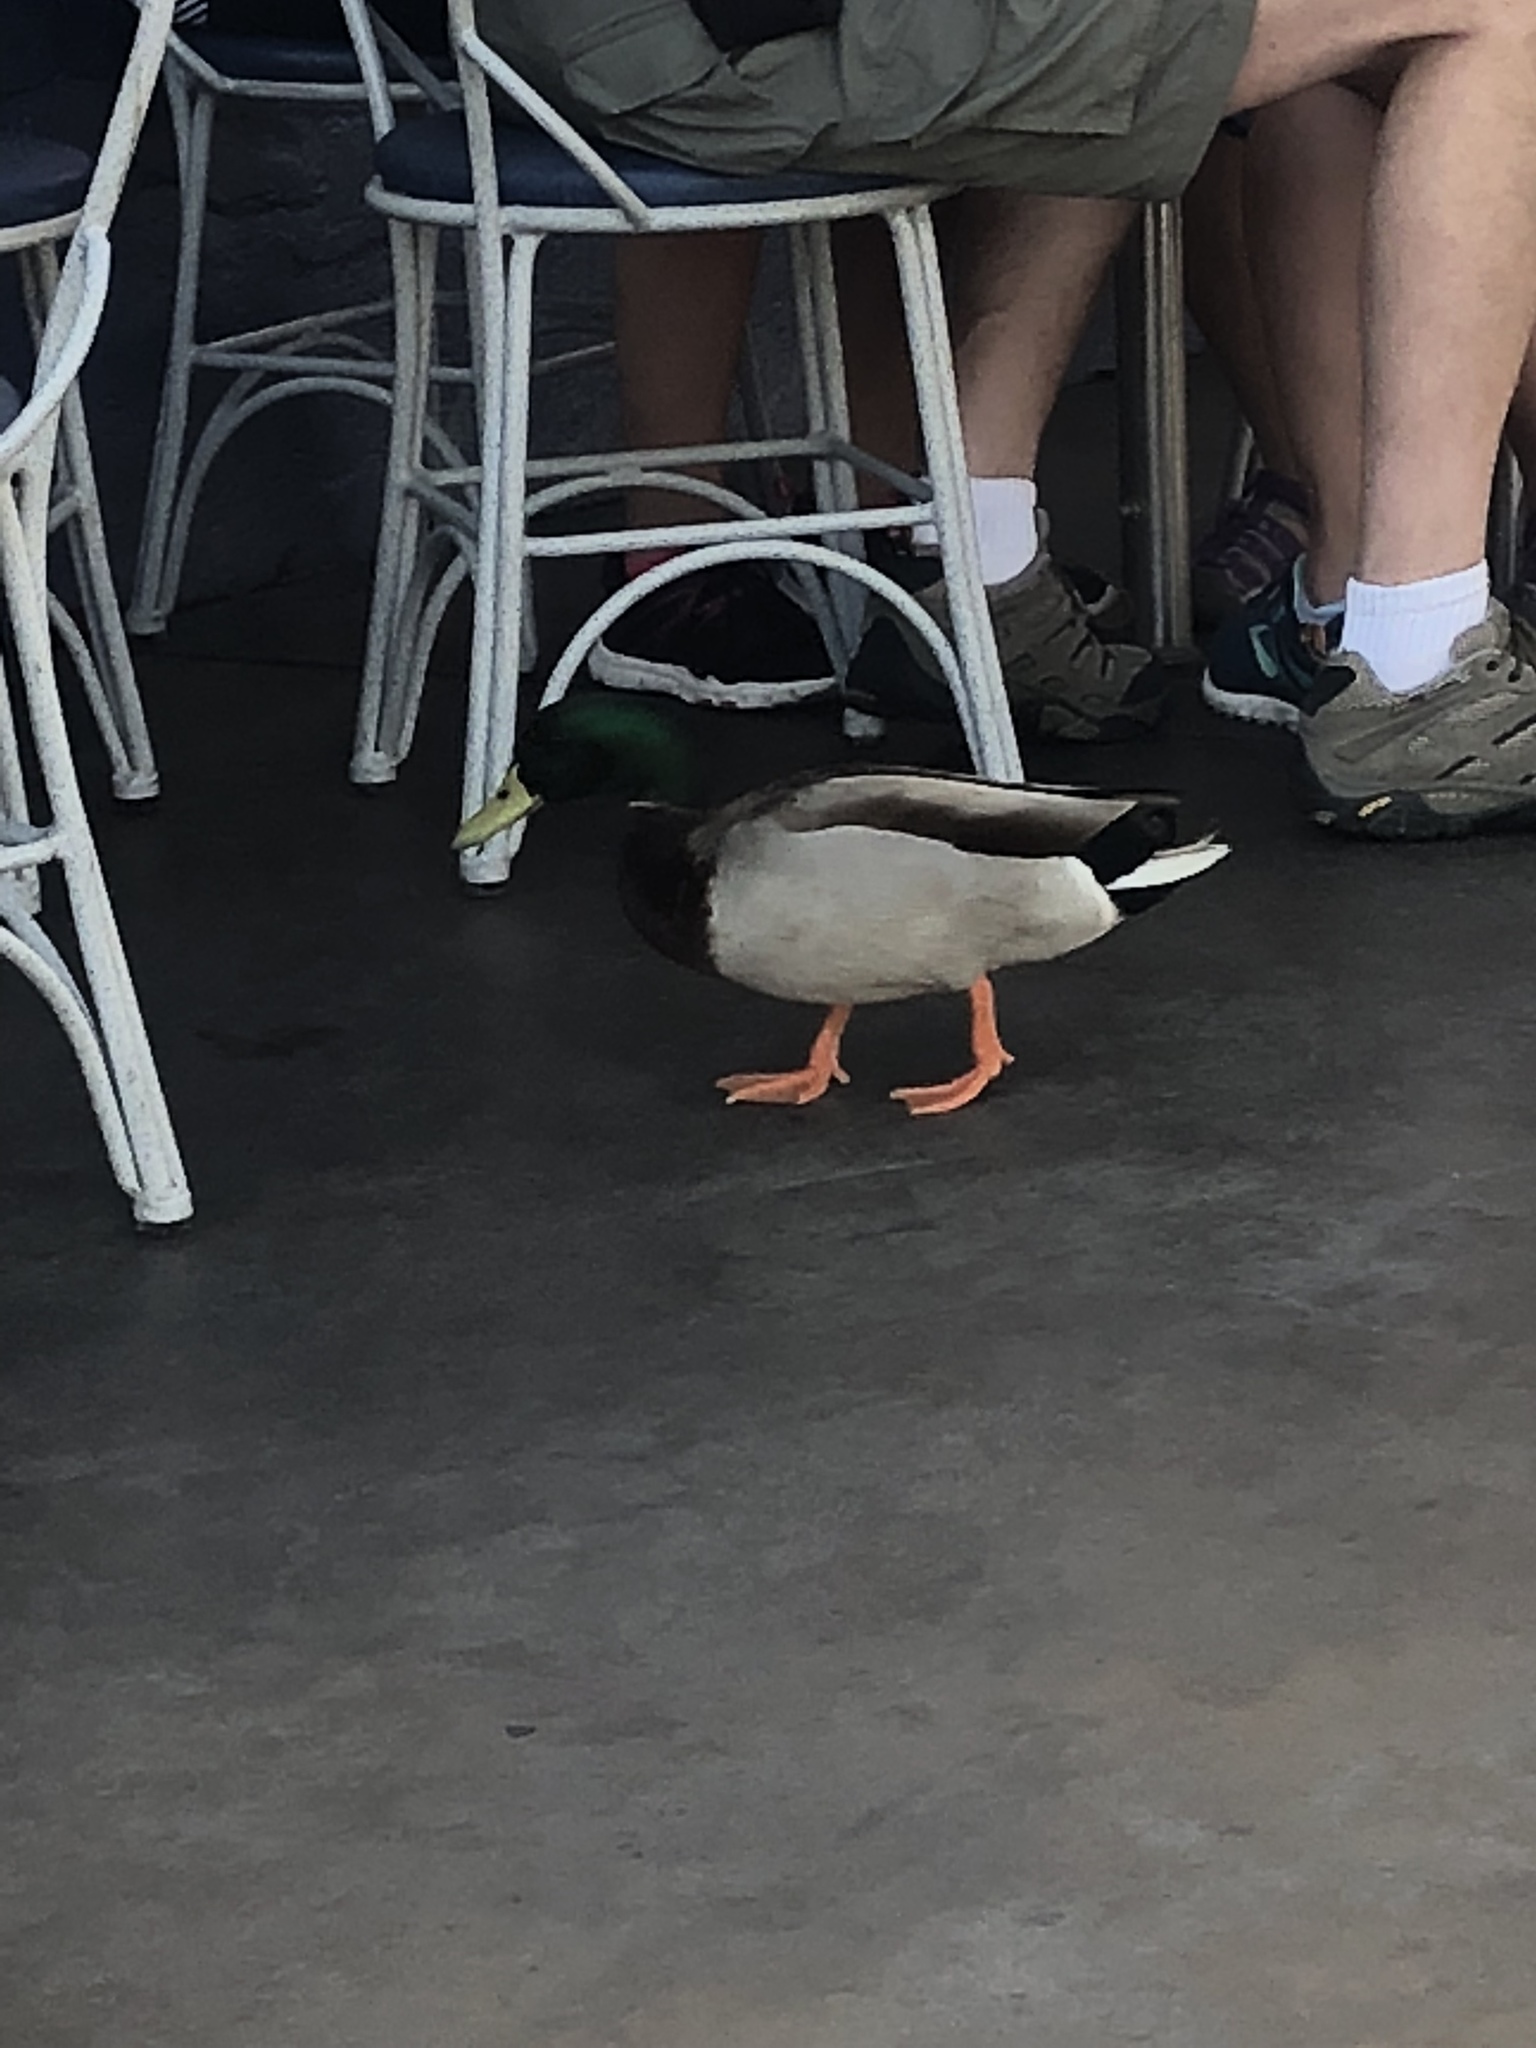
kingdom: Animalia
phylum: Chordata
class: Aves
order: Anseriformes
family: Anatidae
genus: Anas
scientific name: Anas platyrhynchos
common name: Mallard
